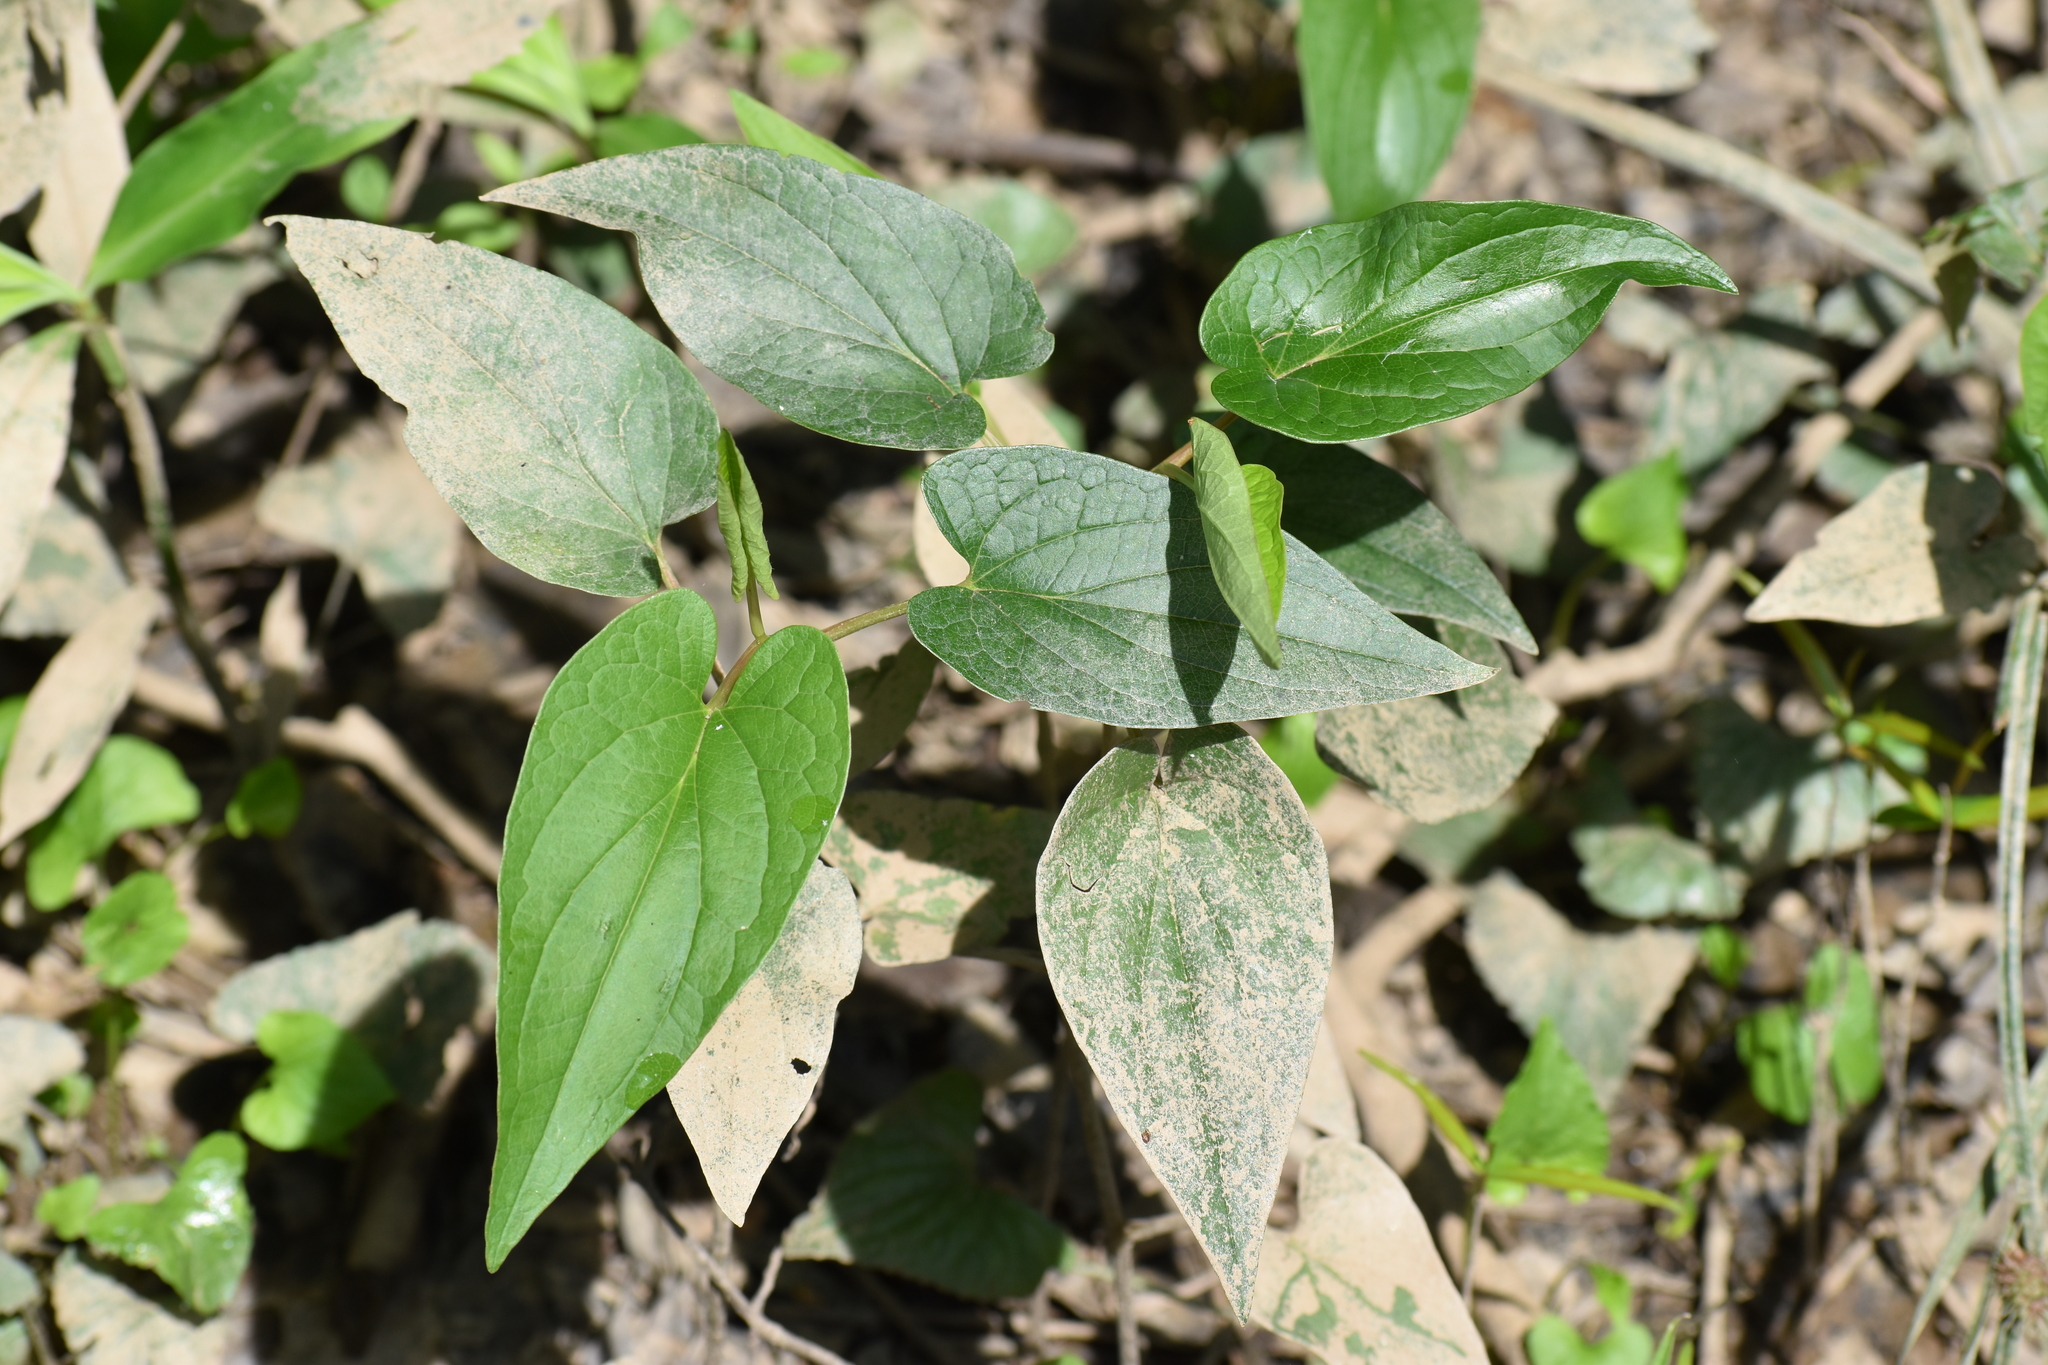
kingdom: Plantae
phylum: Tracheophyta
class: Magnoliopsida
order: Piperales
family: Saururaceae
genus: Saururus
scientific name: Saururus cernuus
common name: Lizard's-tail
